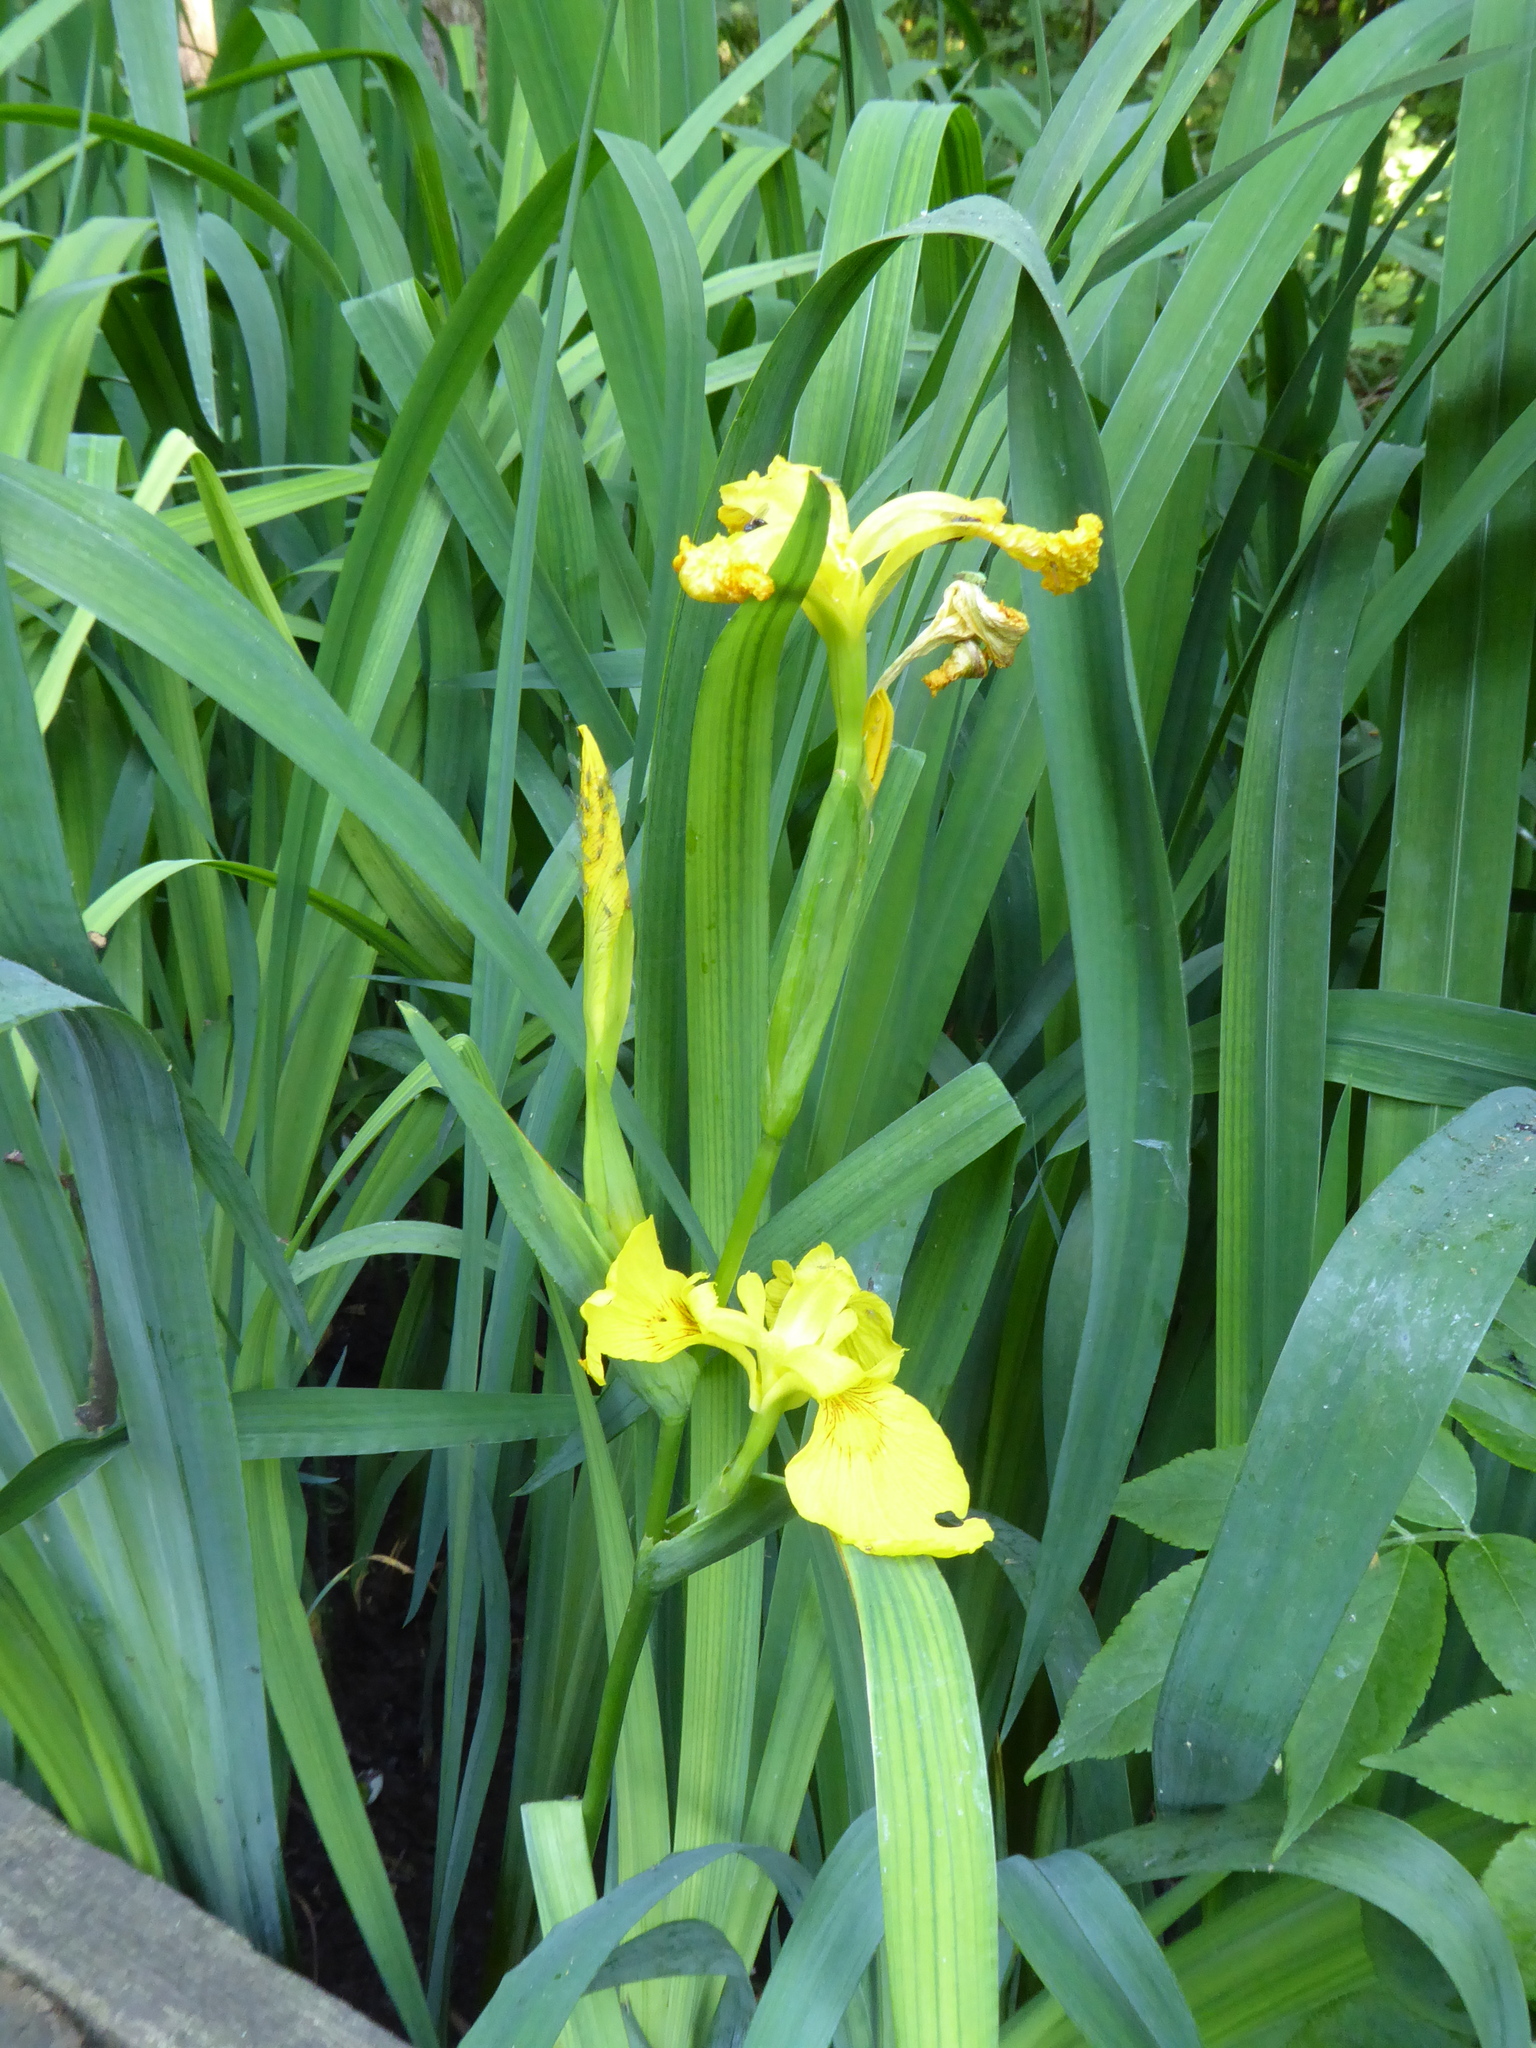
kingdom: Plantae
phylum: Tracheophyta
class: Liliopsida
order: Asparagales
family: Iridaceae
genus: Iris
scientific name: Iris pseudacorus
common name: Yellow flag
